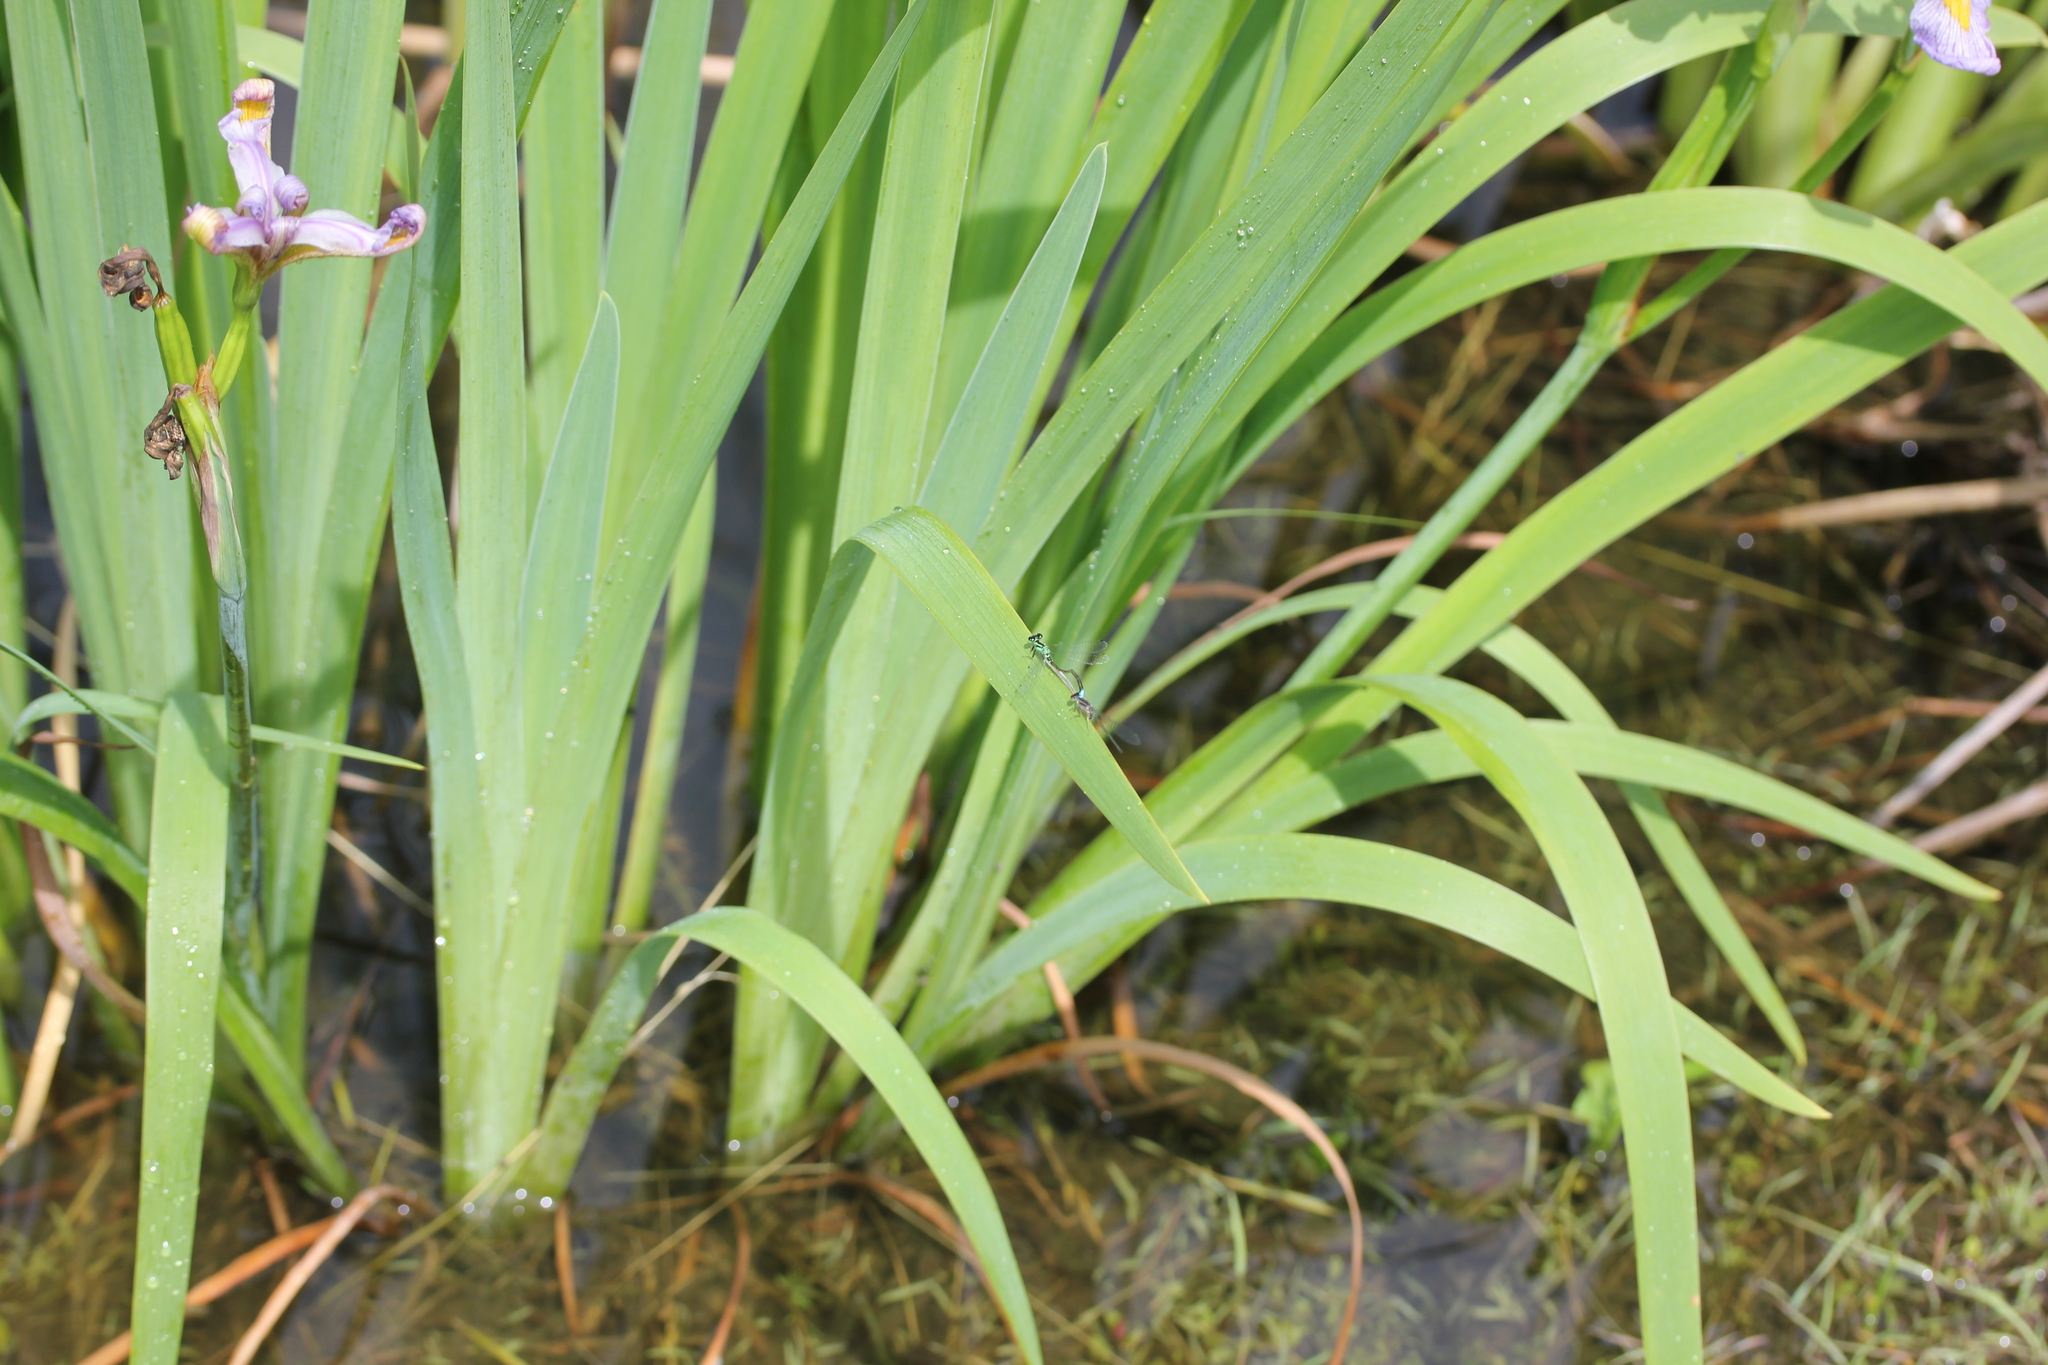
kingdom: Plantae
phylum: Tracheophyta
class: Liliopsida
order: Asparagales
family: Iridaceae
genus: Iris
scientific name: Iris virginica
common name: Southern blue flag
